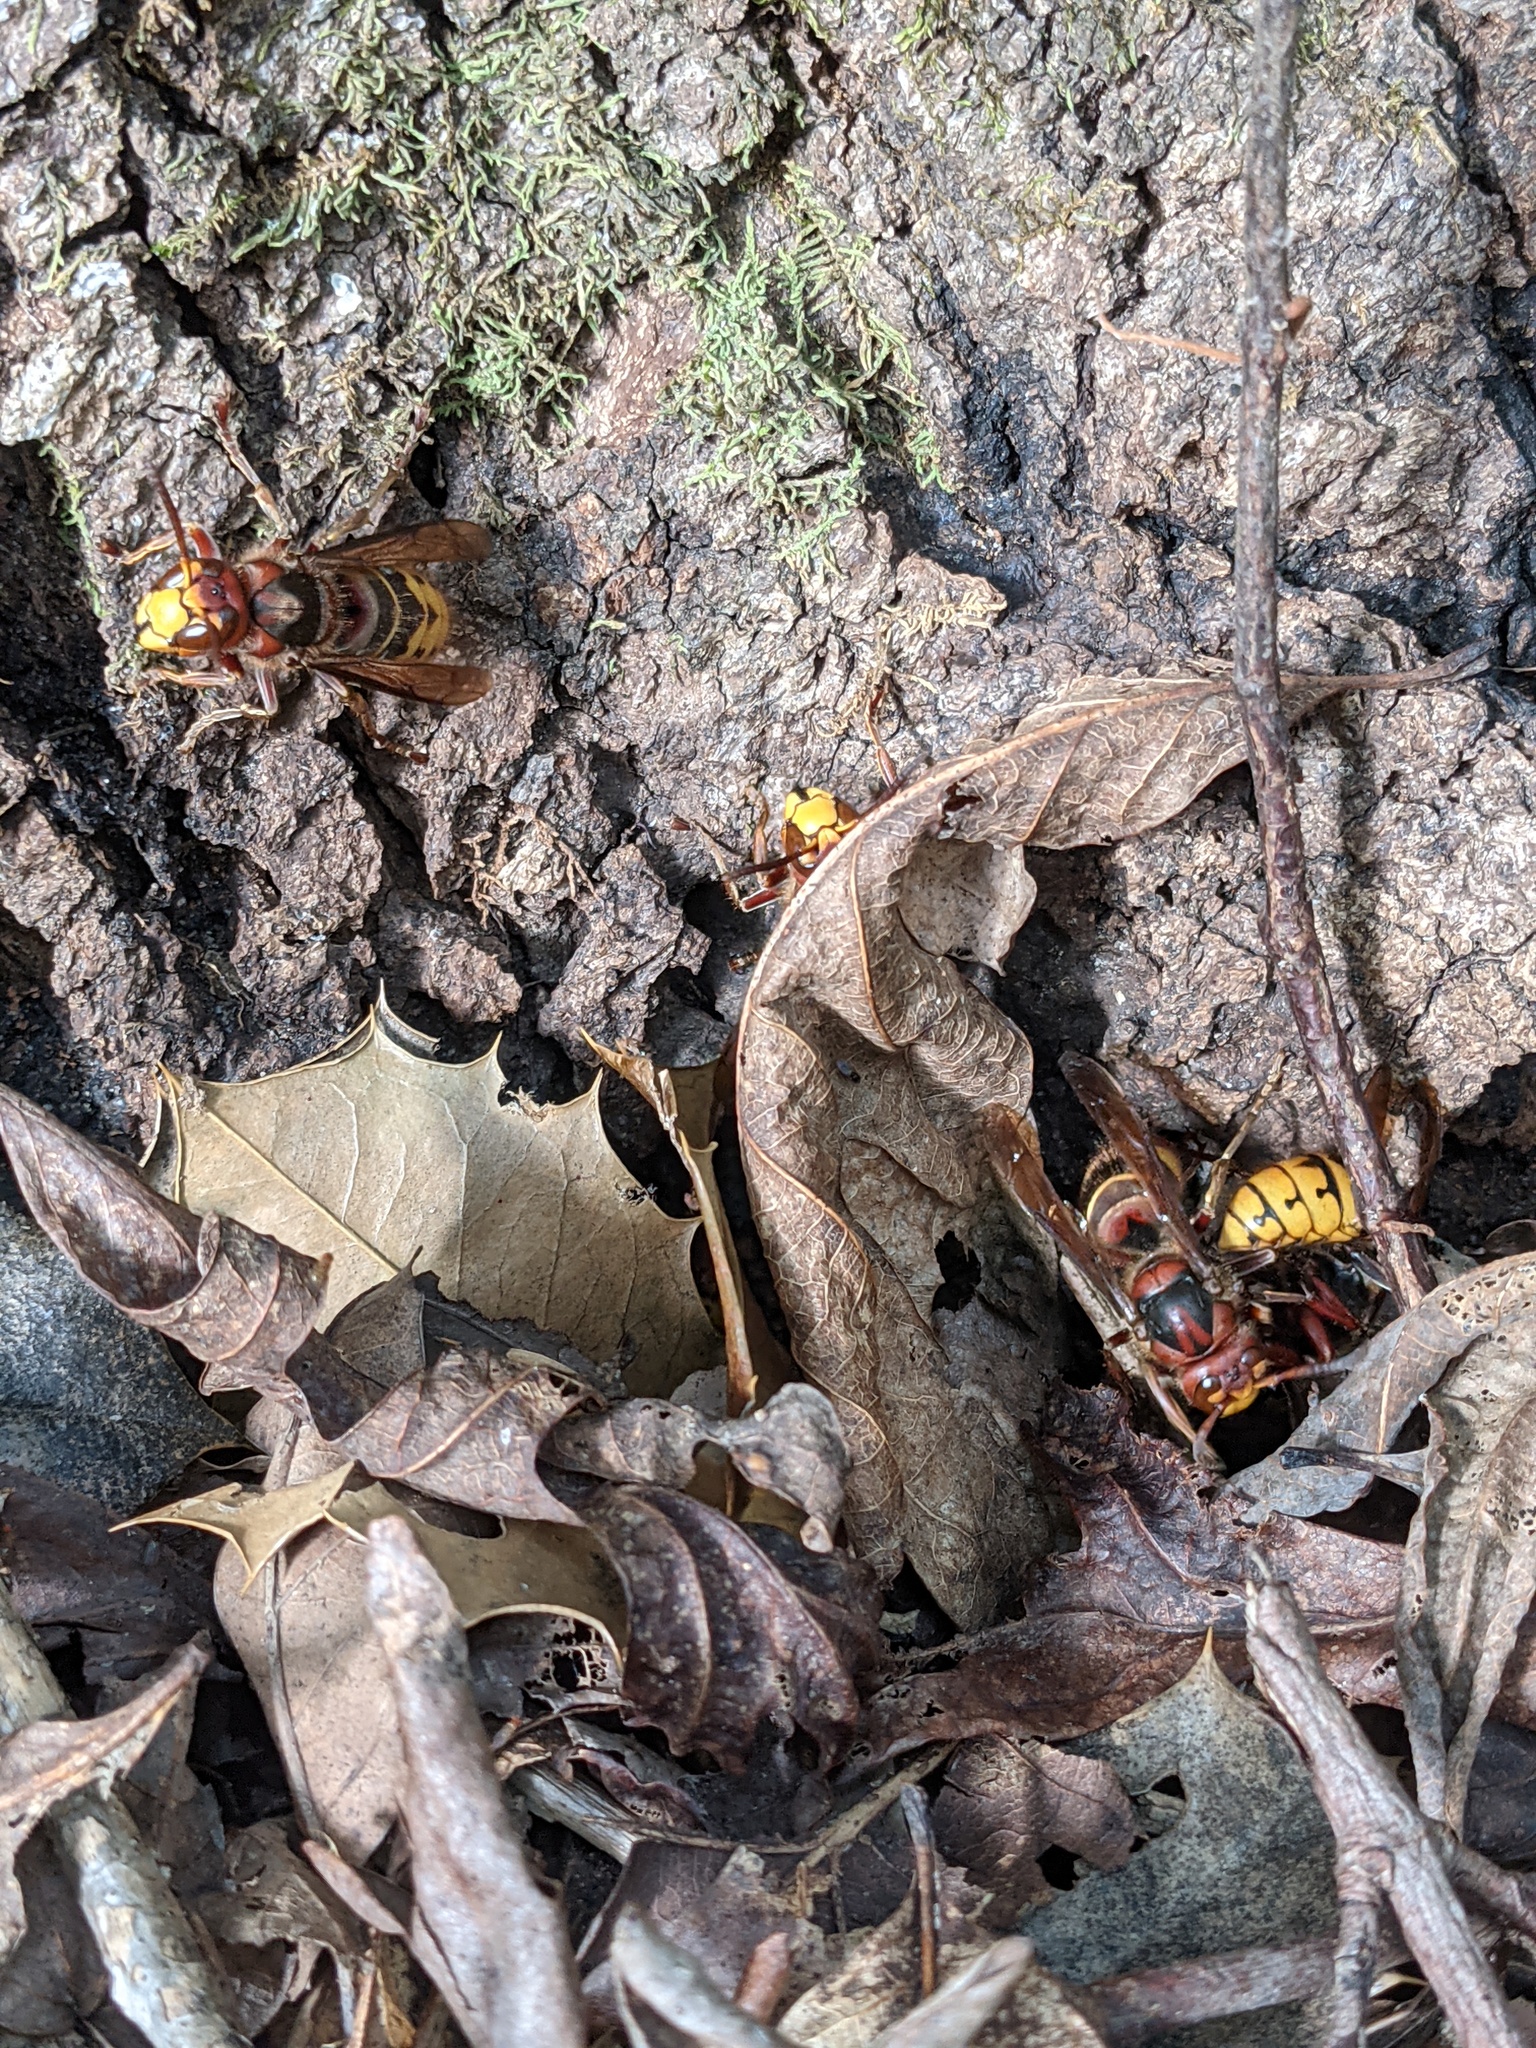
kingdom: Animalia
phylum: Arthropoda
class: Insecta
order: Hymenoptera
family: Vespidae
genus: Vespa
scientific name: Vespa crabro
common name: Hornet
